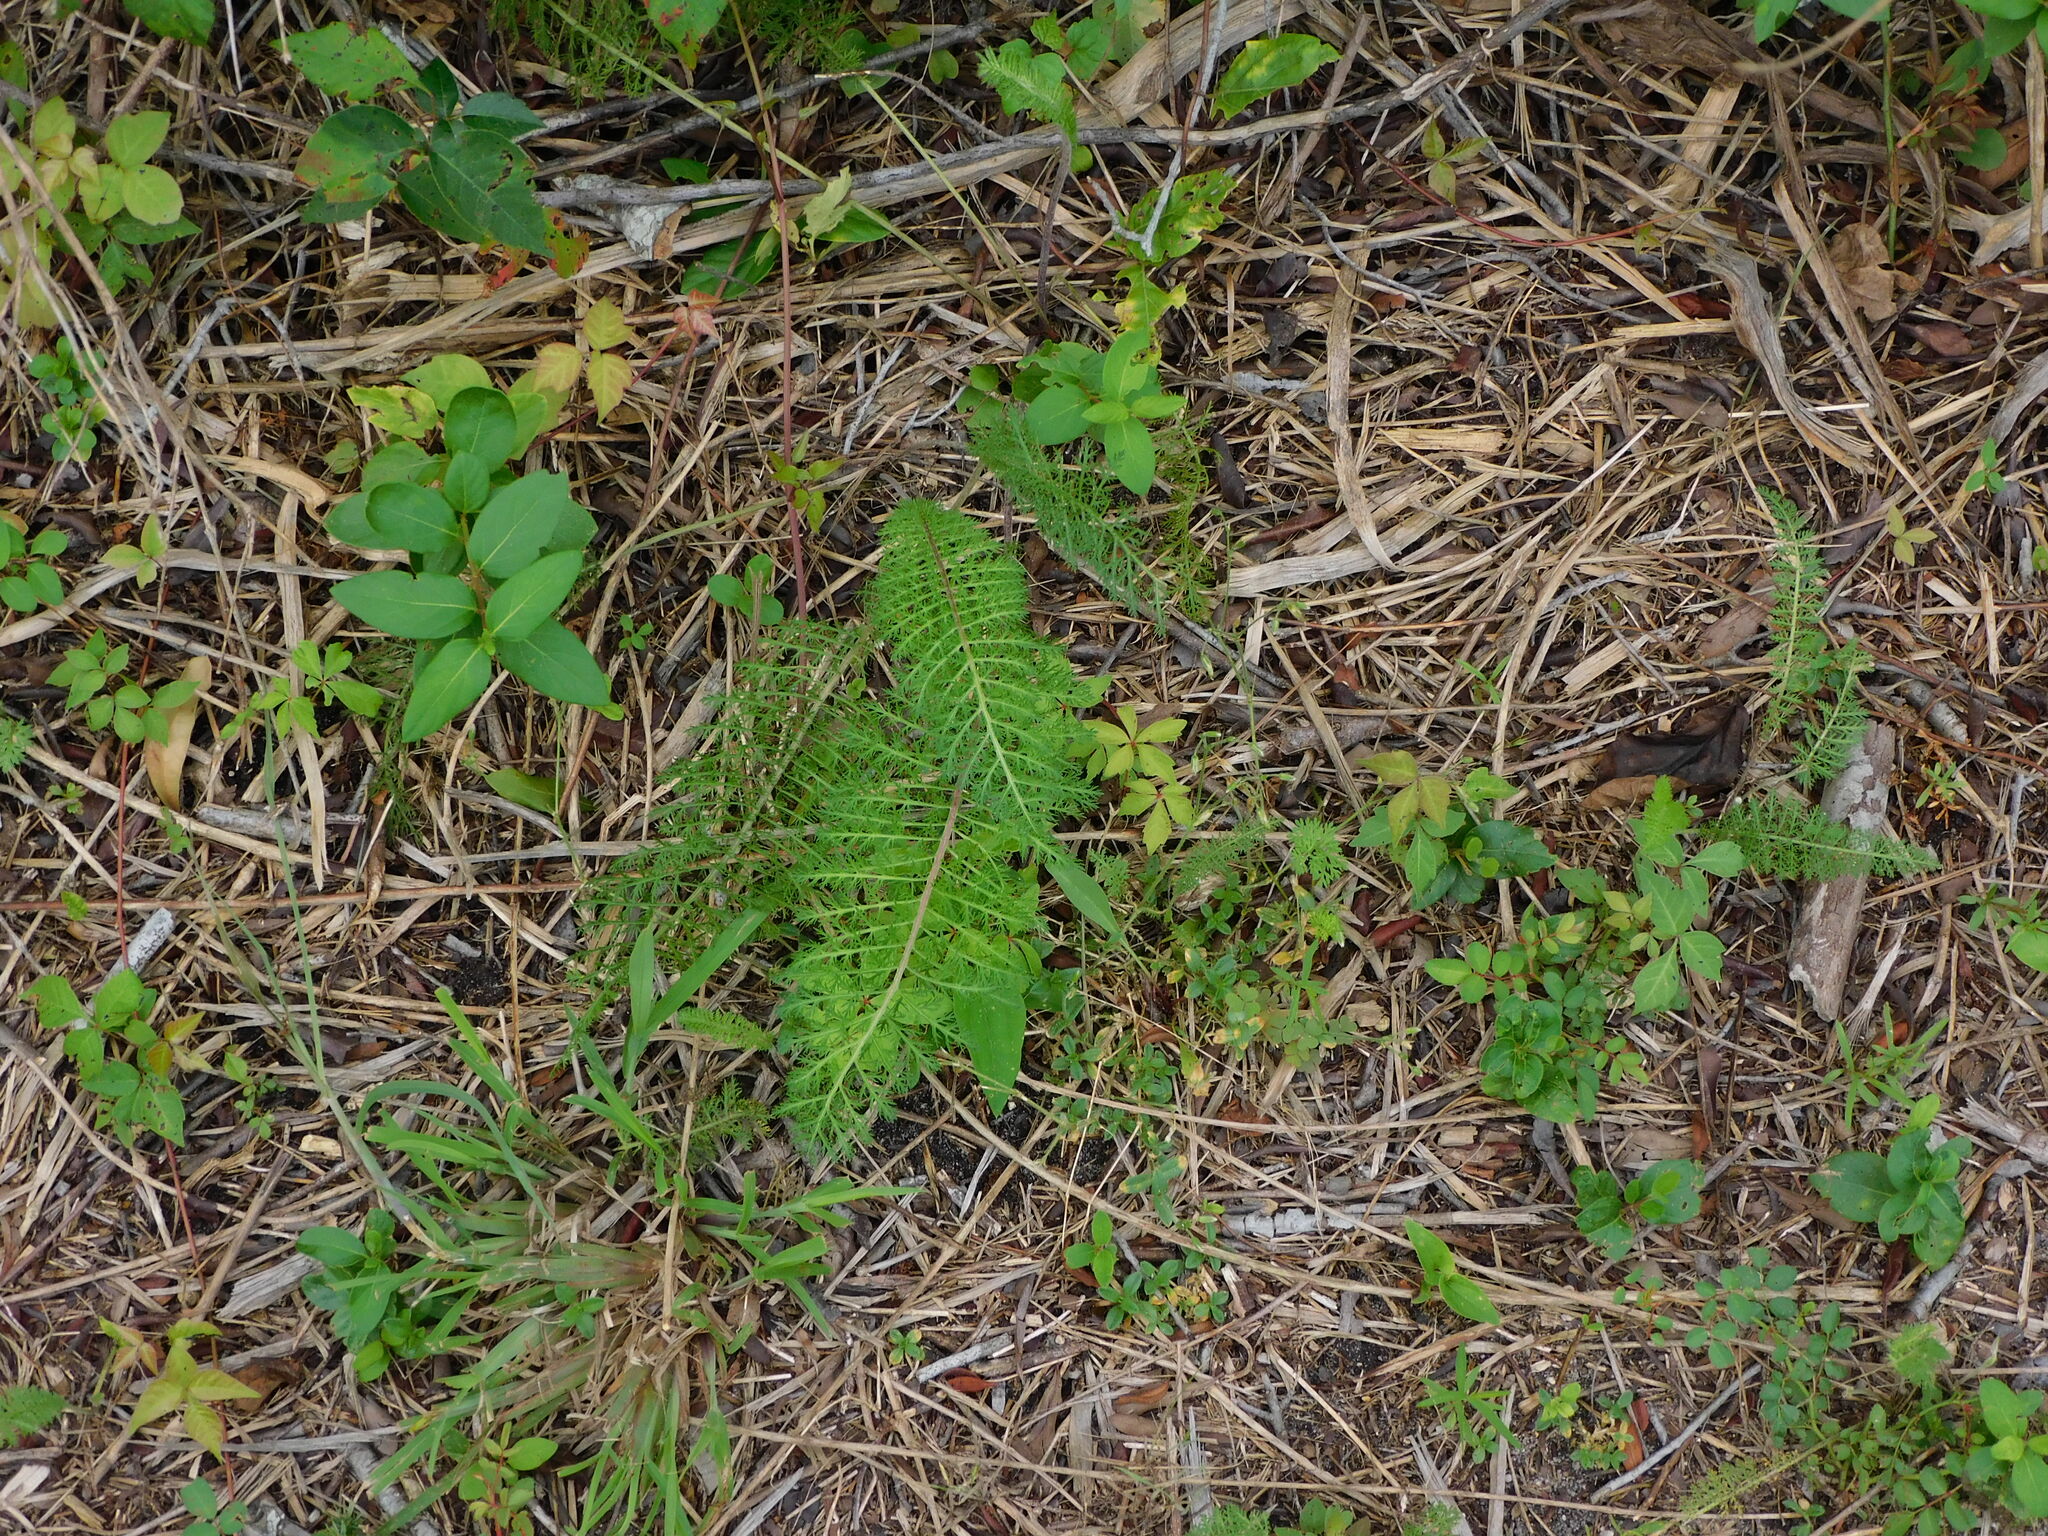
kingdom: Plantae
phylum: Tracheophyta
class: Magnoliopsida
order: Asterales
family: Asteraceae
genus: Achillea
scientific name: Achillea millefolium
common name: Yarrow
